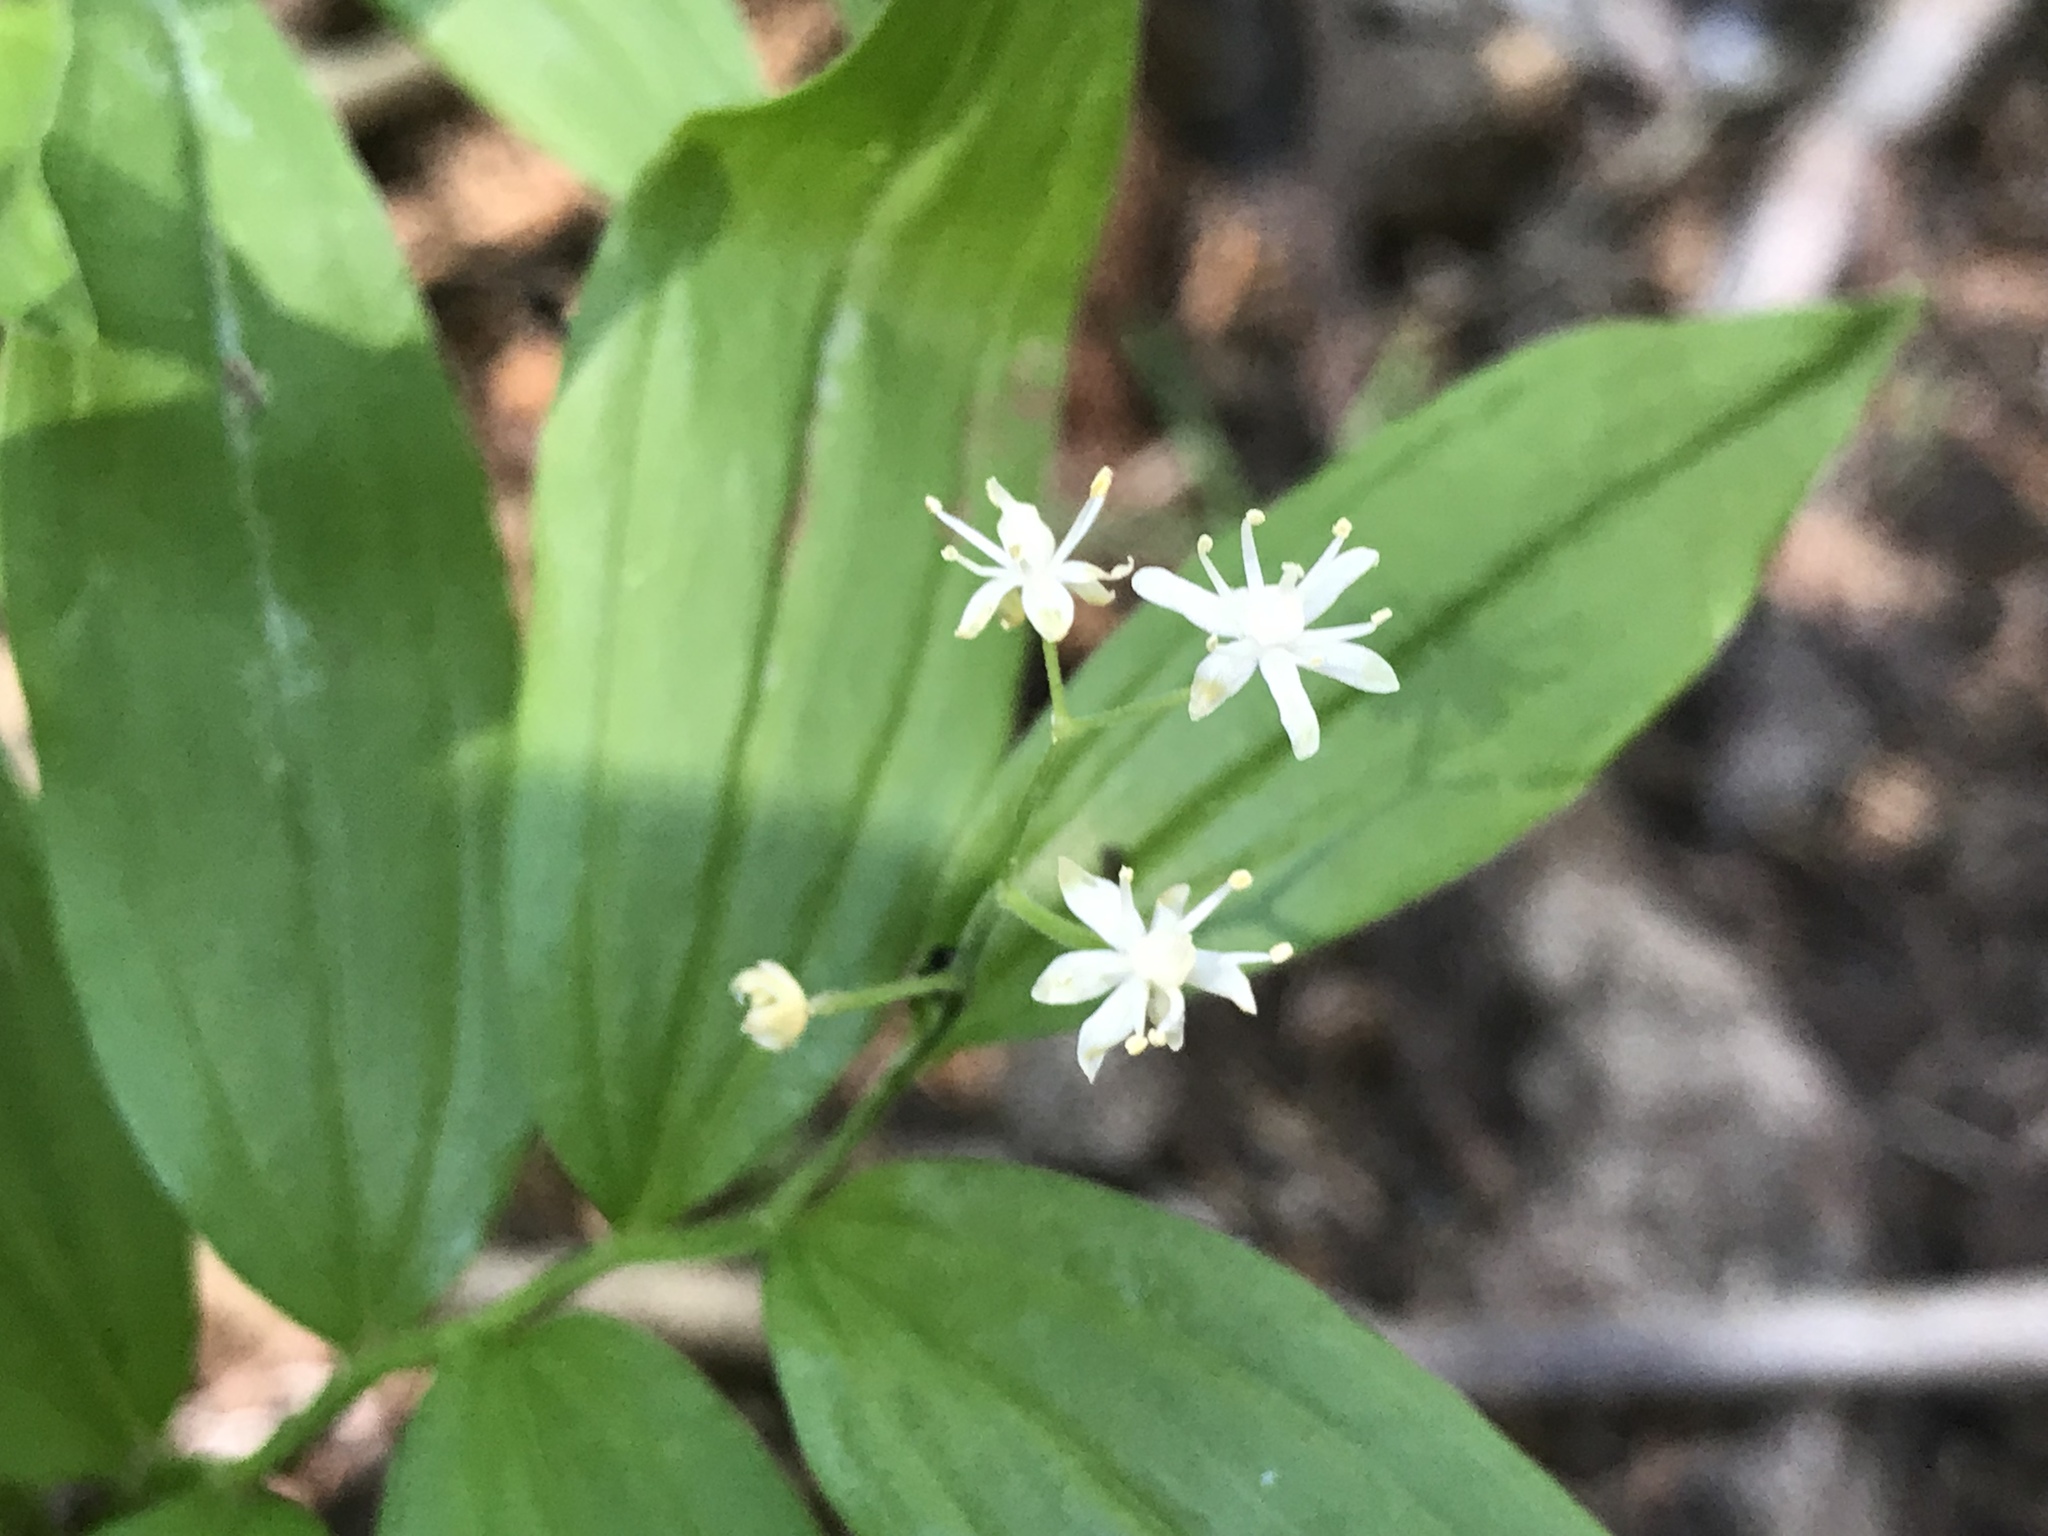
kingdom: Plantae
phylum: Tracheophyta
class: Liliopsida
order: Asparagales
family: Asparagaceae
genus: Maianthemum
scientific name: Maianthemum stellatum
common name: Little false solomon's seal
